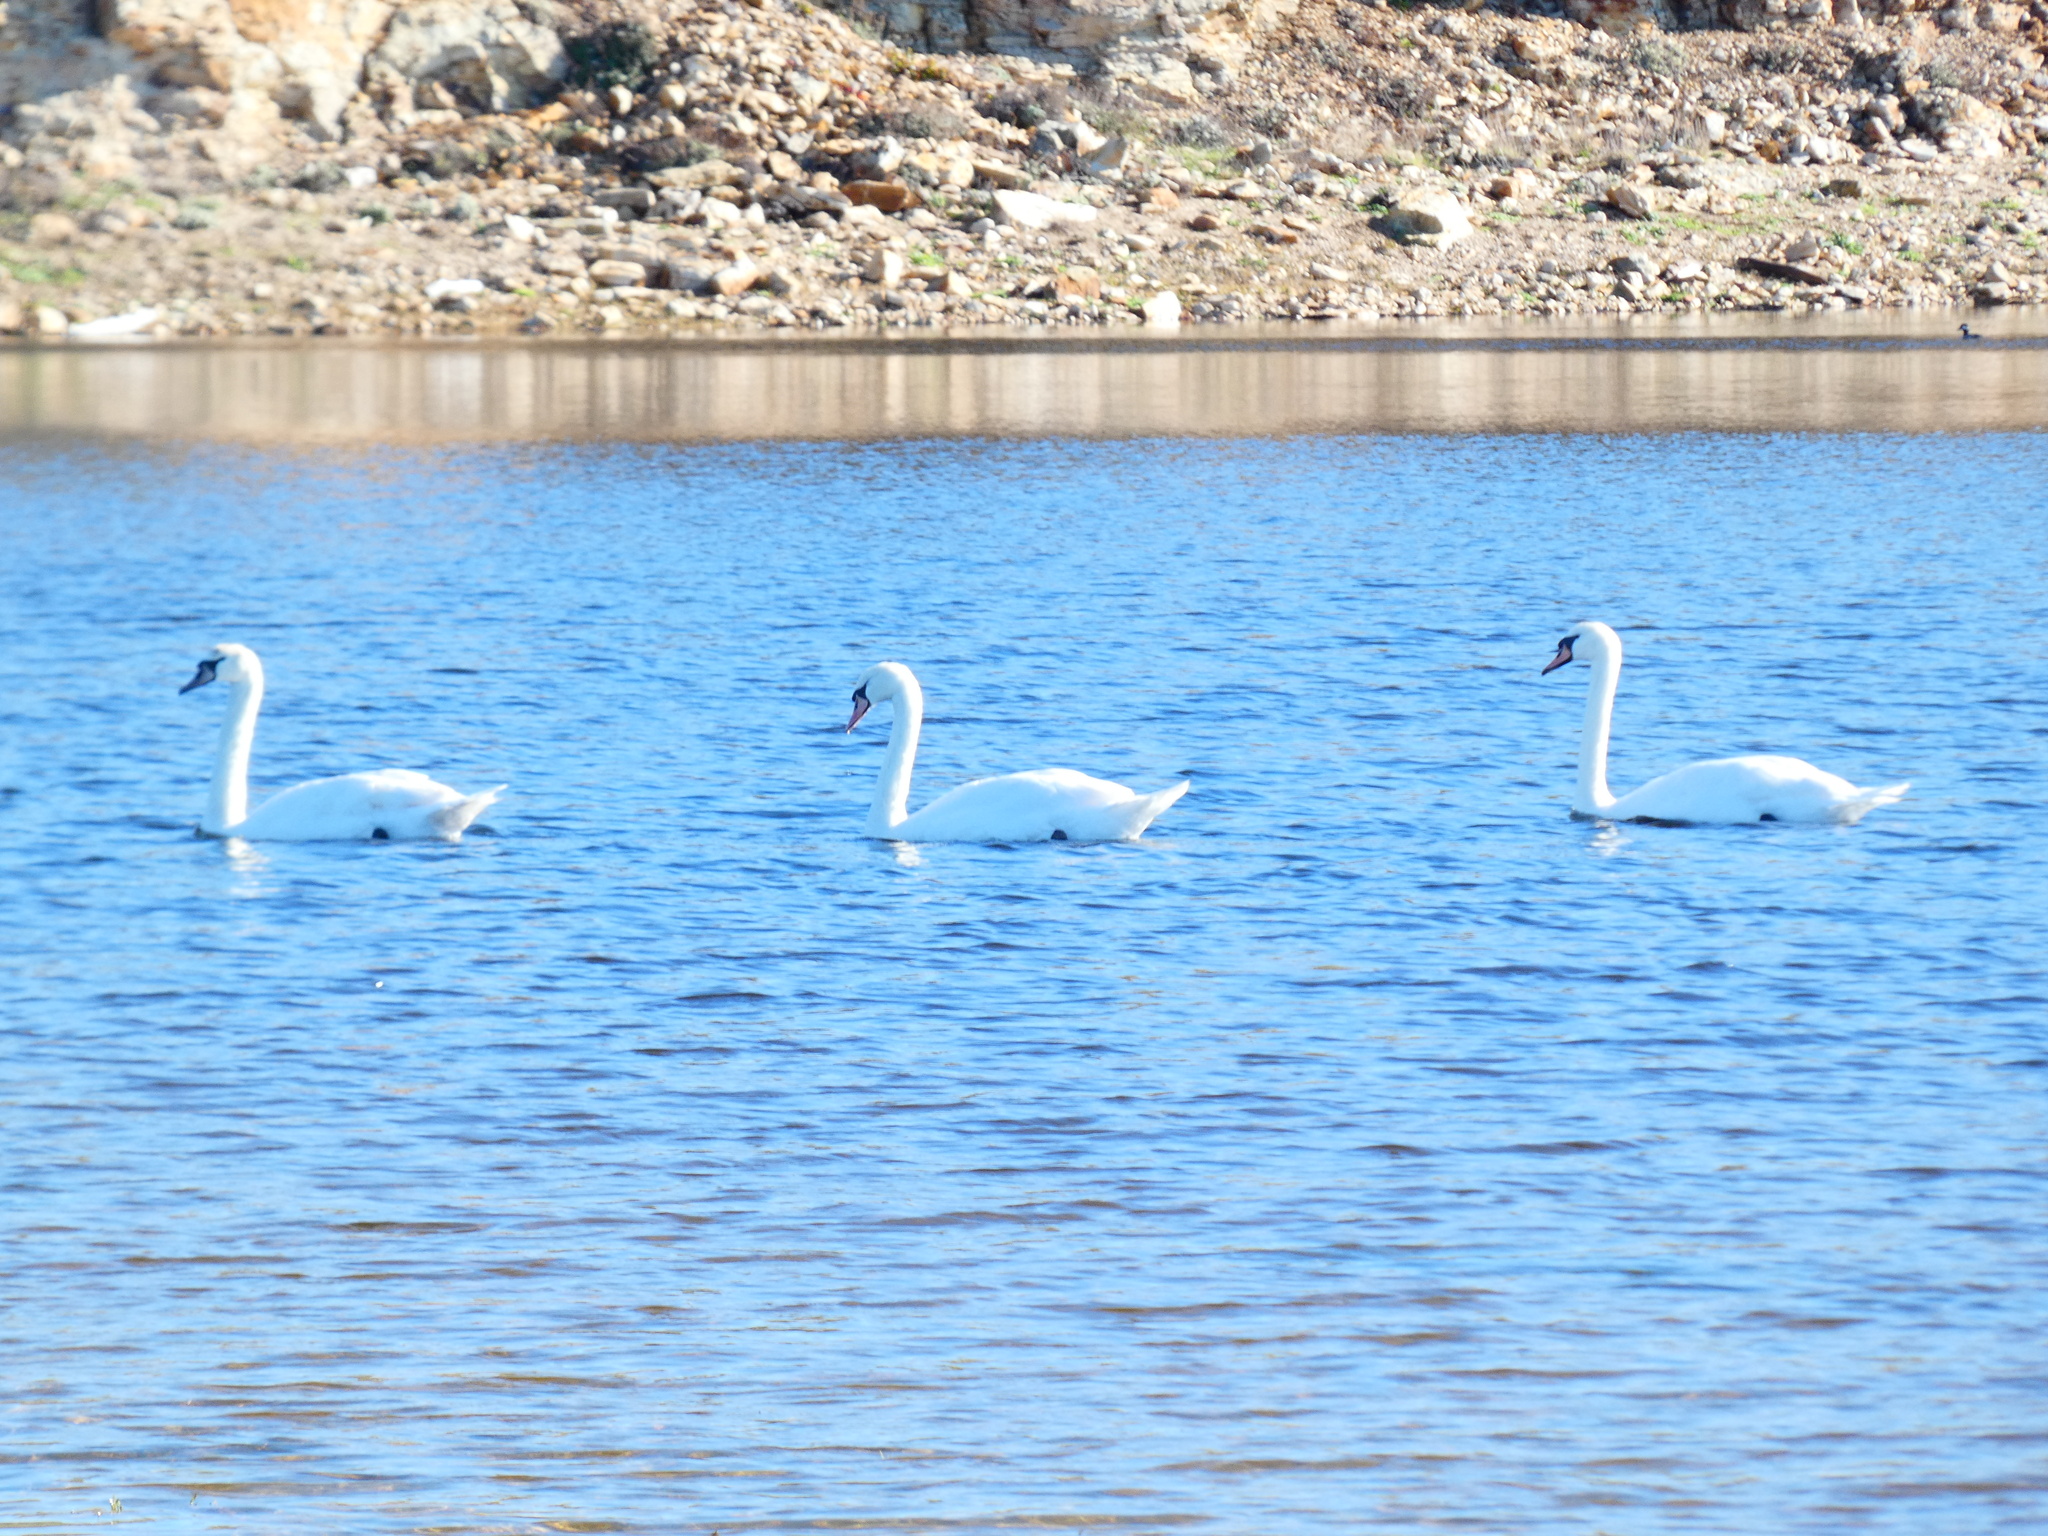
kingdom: Animalia
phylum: Chordata
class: Aves
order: Anseriformes
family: Anatidae
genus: Cygnus
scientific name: Cygnus olor
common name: Mute swan
